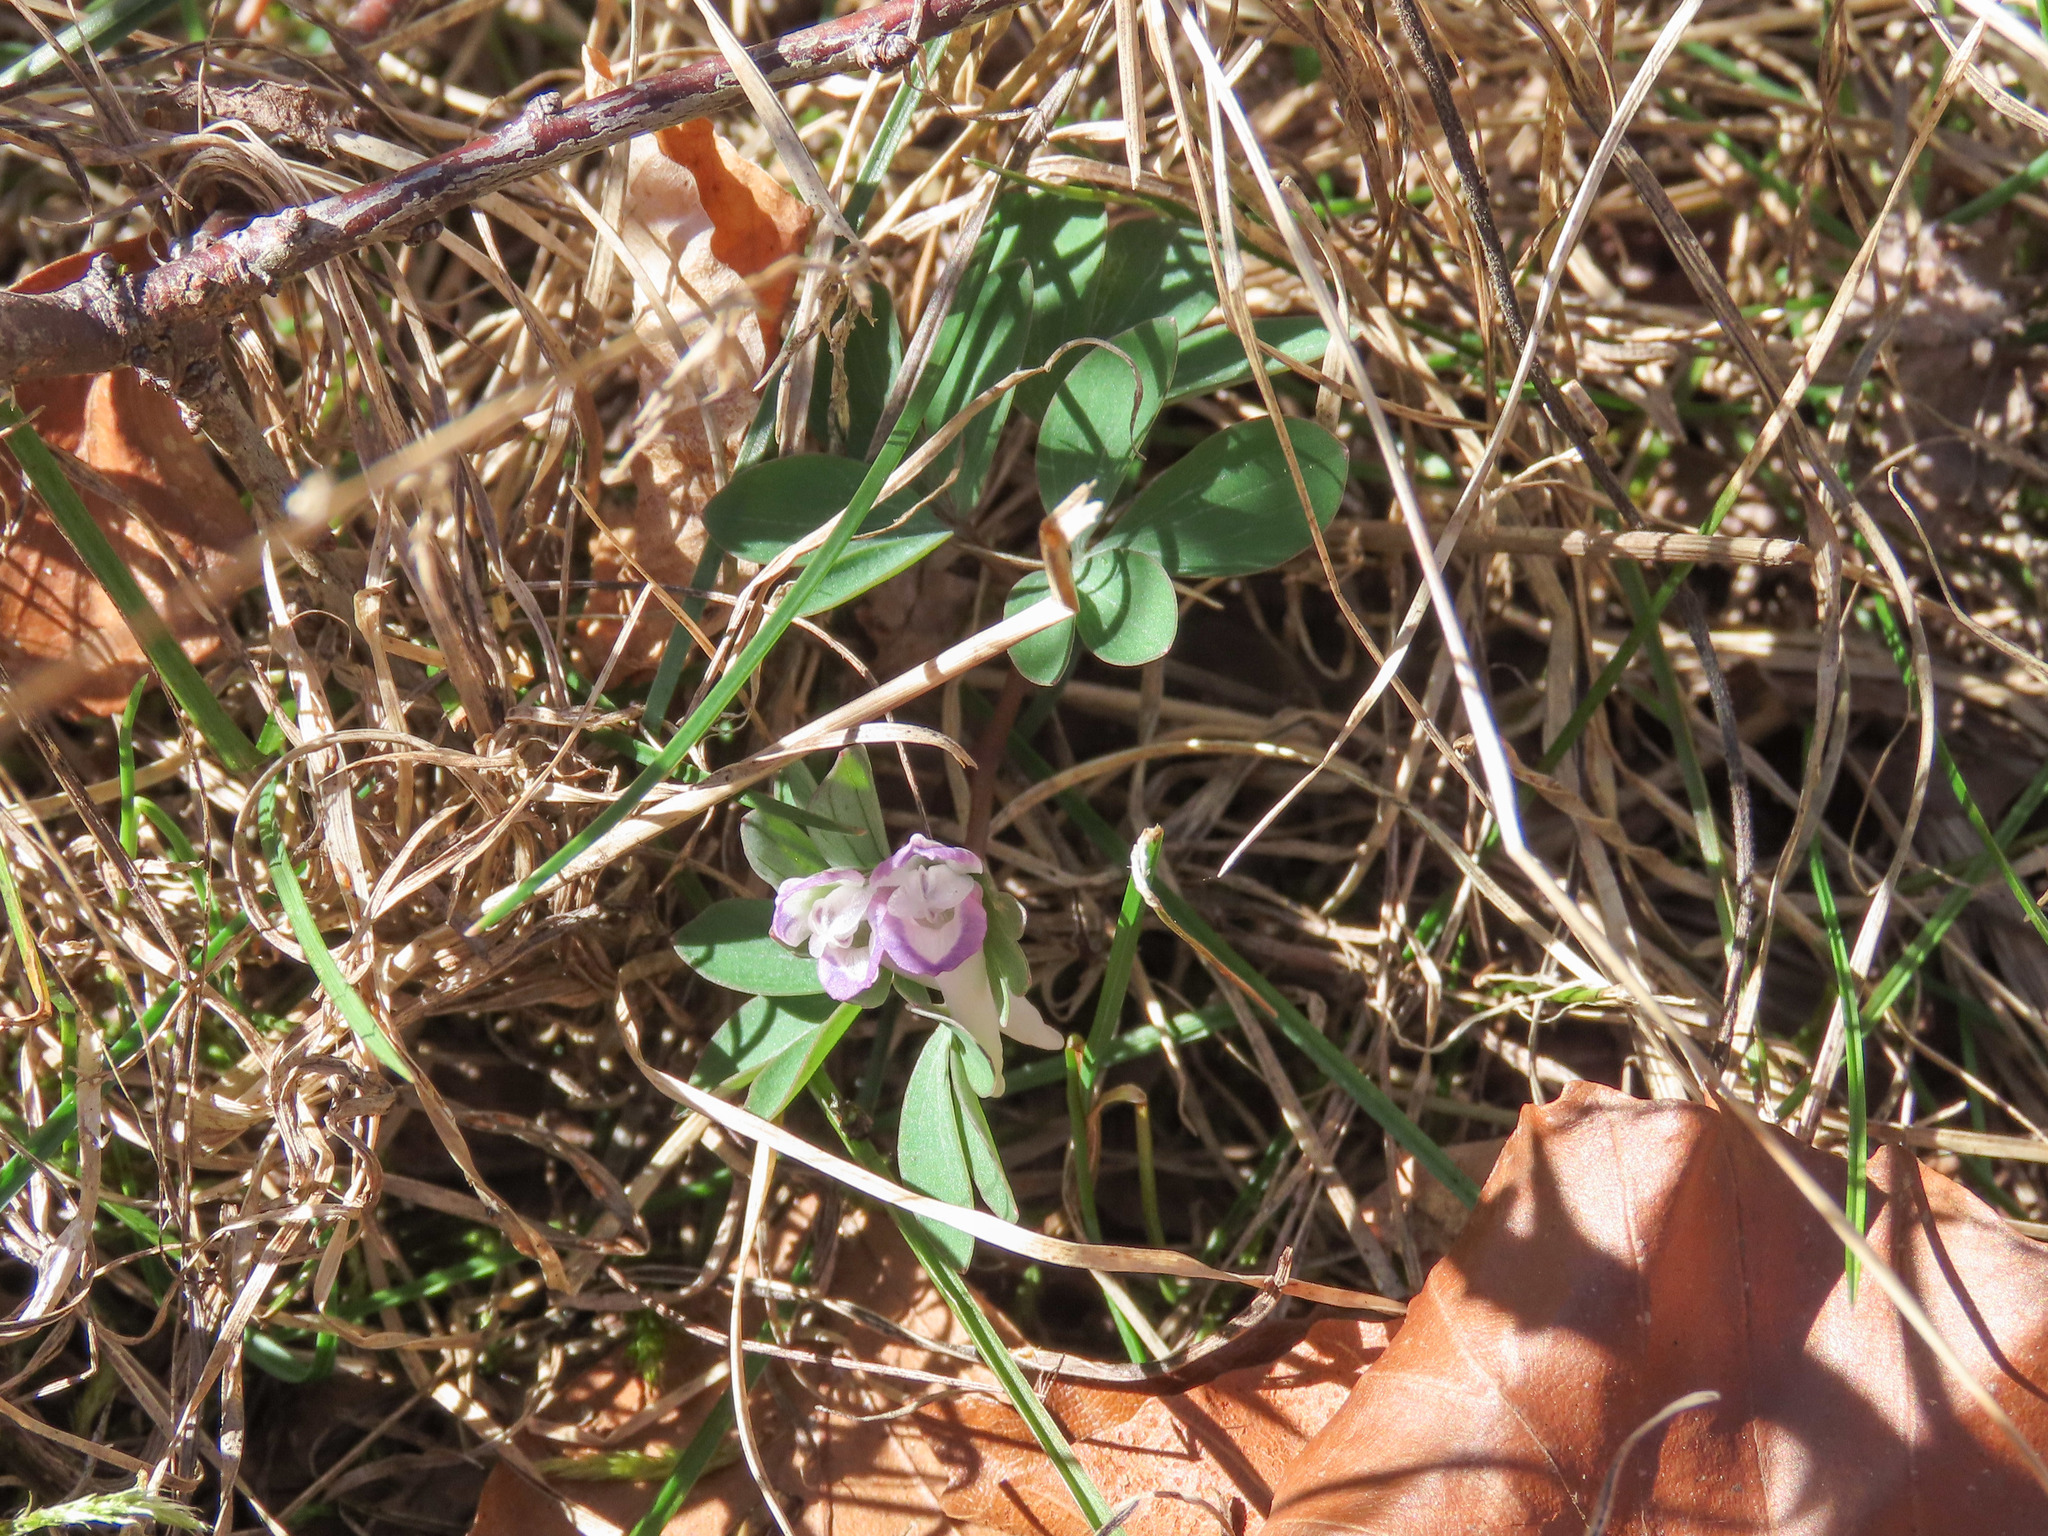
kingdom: Plantae
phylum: Tracheophyta
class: Magnoliopsida
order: Ranunculales
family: Papaveraceae
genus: Corydalis
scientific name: Corydalis pumila
